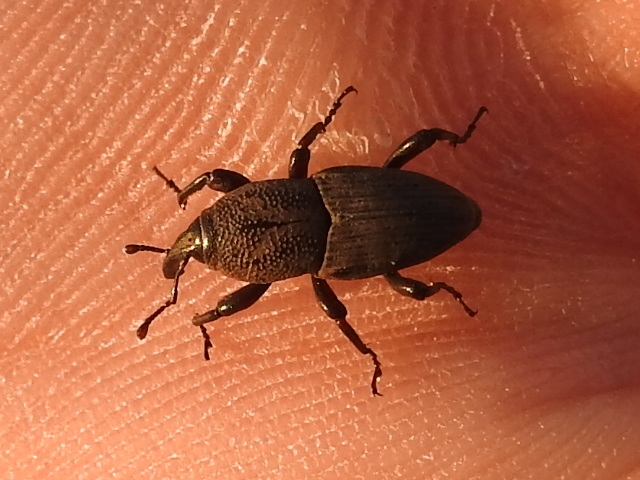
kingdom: Animalia
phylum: Arthropoda
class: Insecta
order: Coleoptera
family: Dryophthoridae
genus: Sphenophorus
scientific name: Sphenophorus coesifrons
